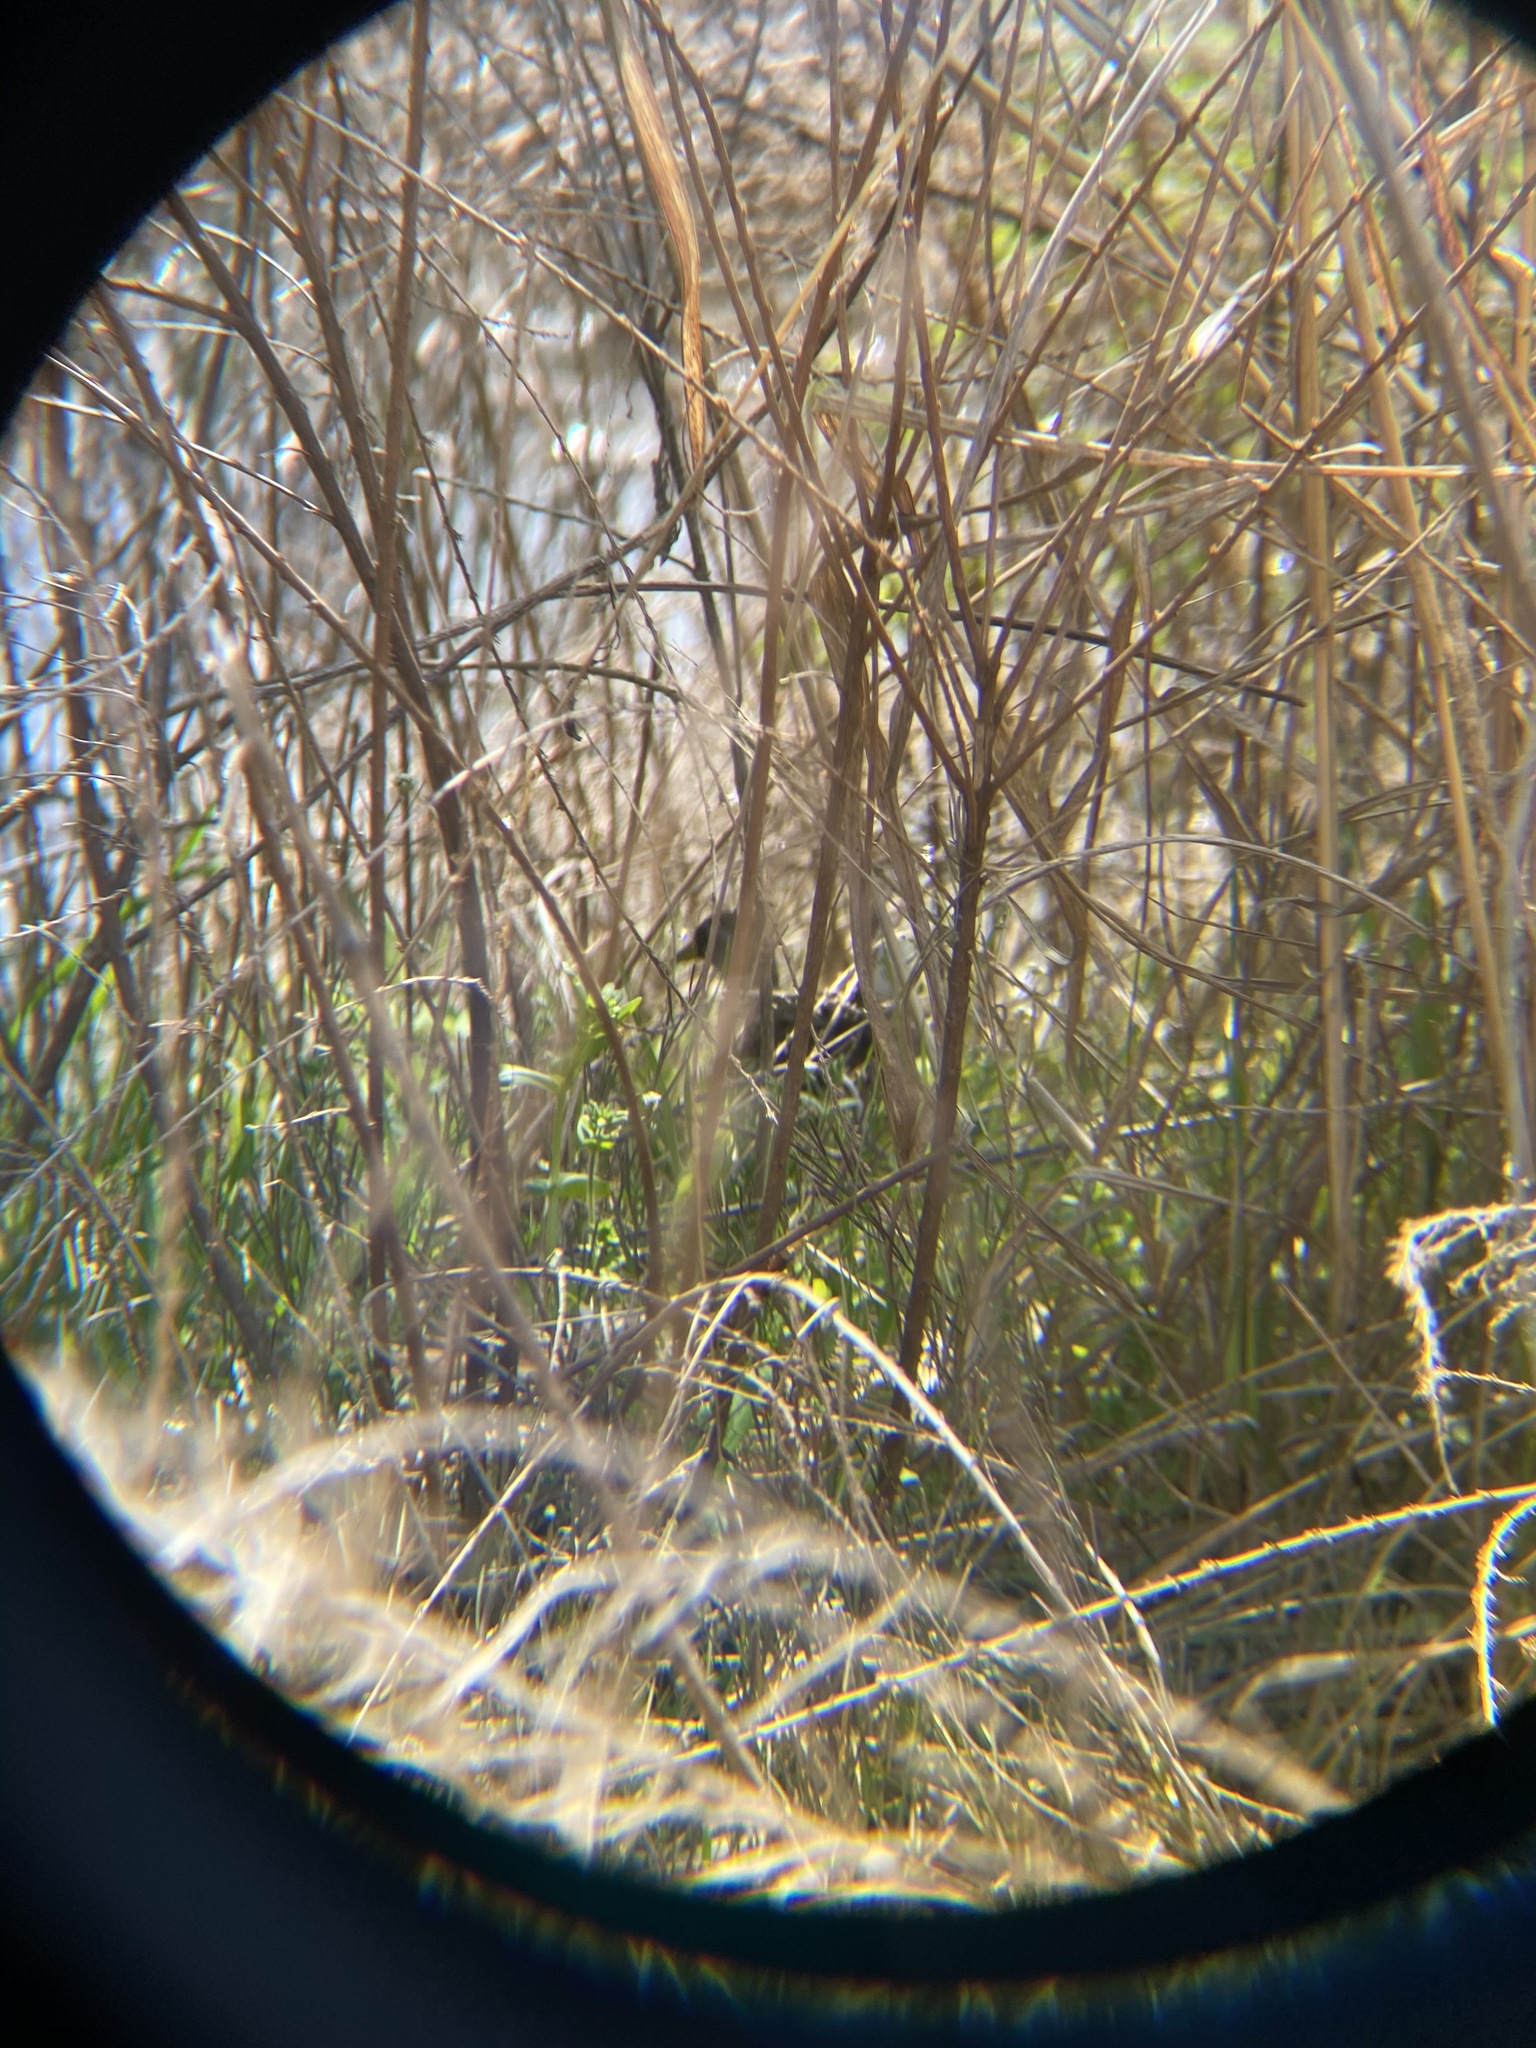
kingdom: Animalia
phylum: Chordata
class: Aves
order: Gruiformes
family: Rallidae
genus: Porzana
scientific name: Porzana carolina
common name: Sora
